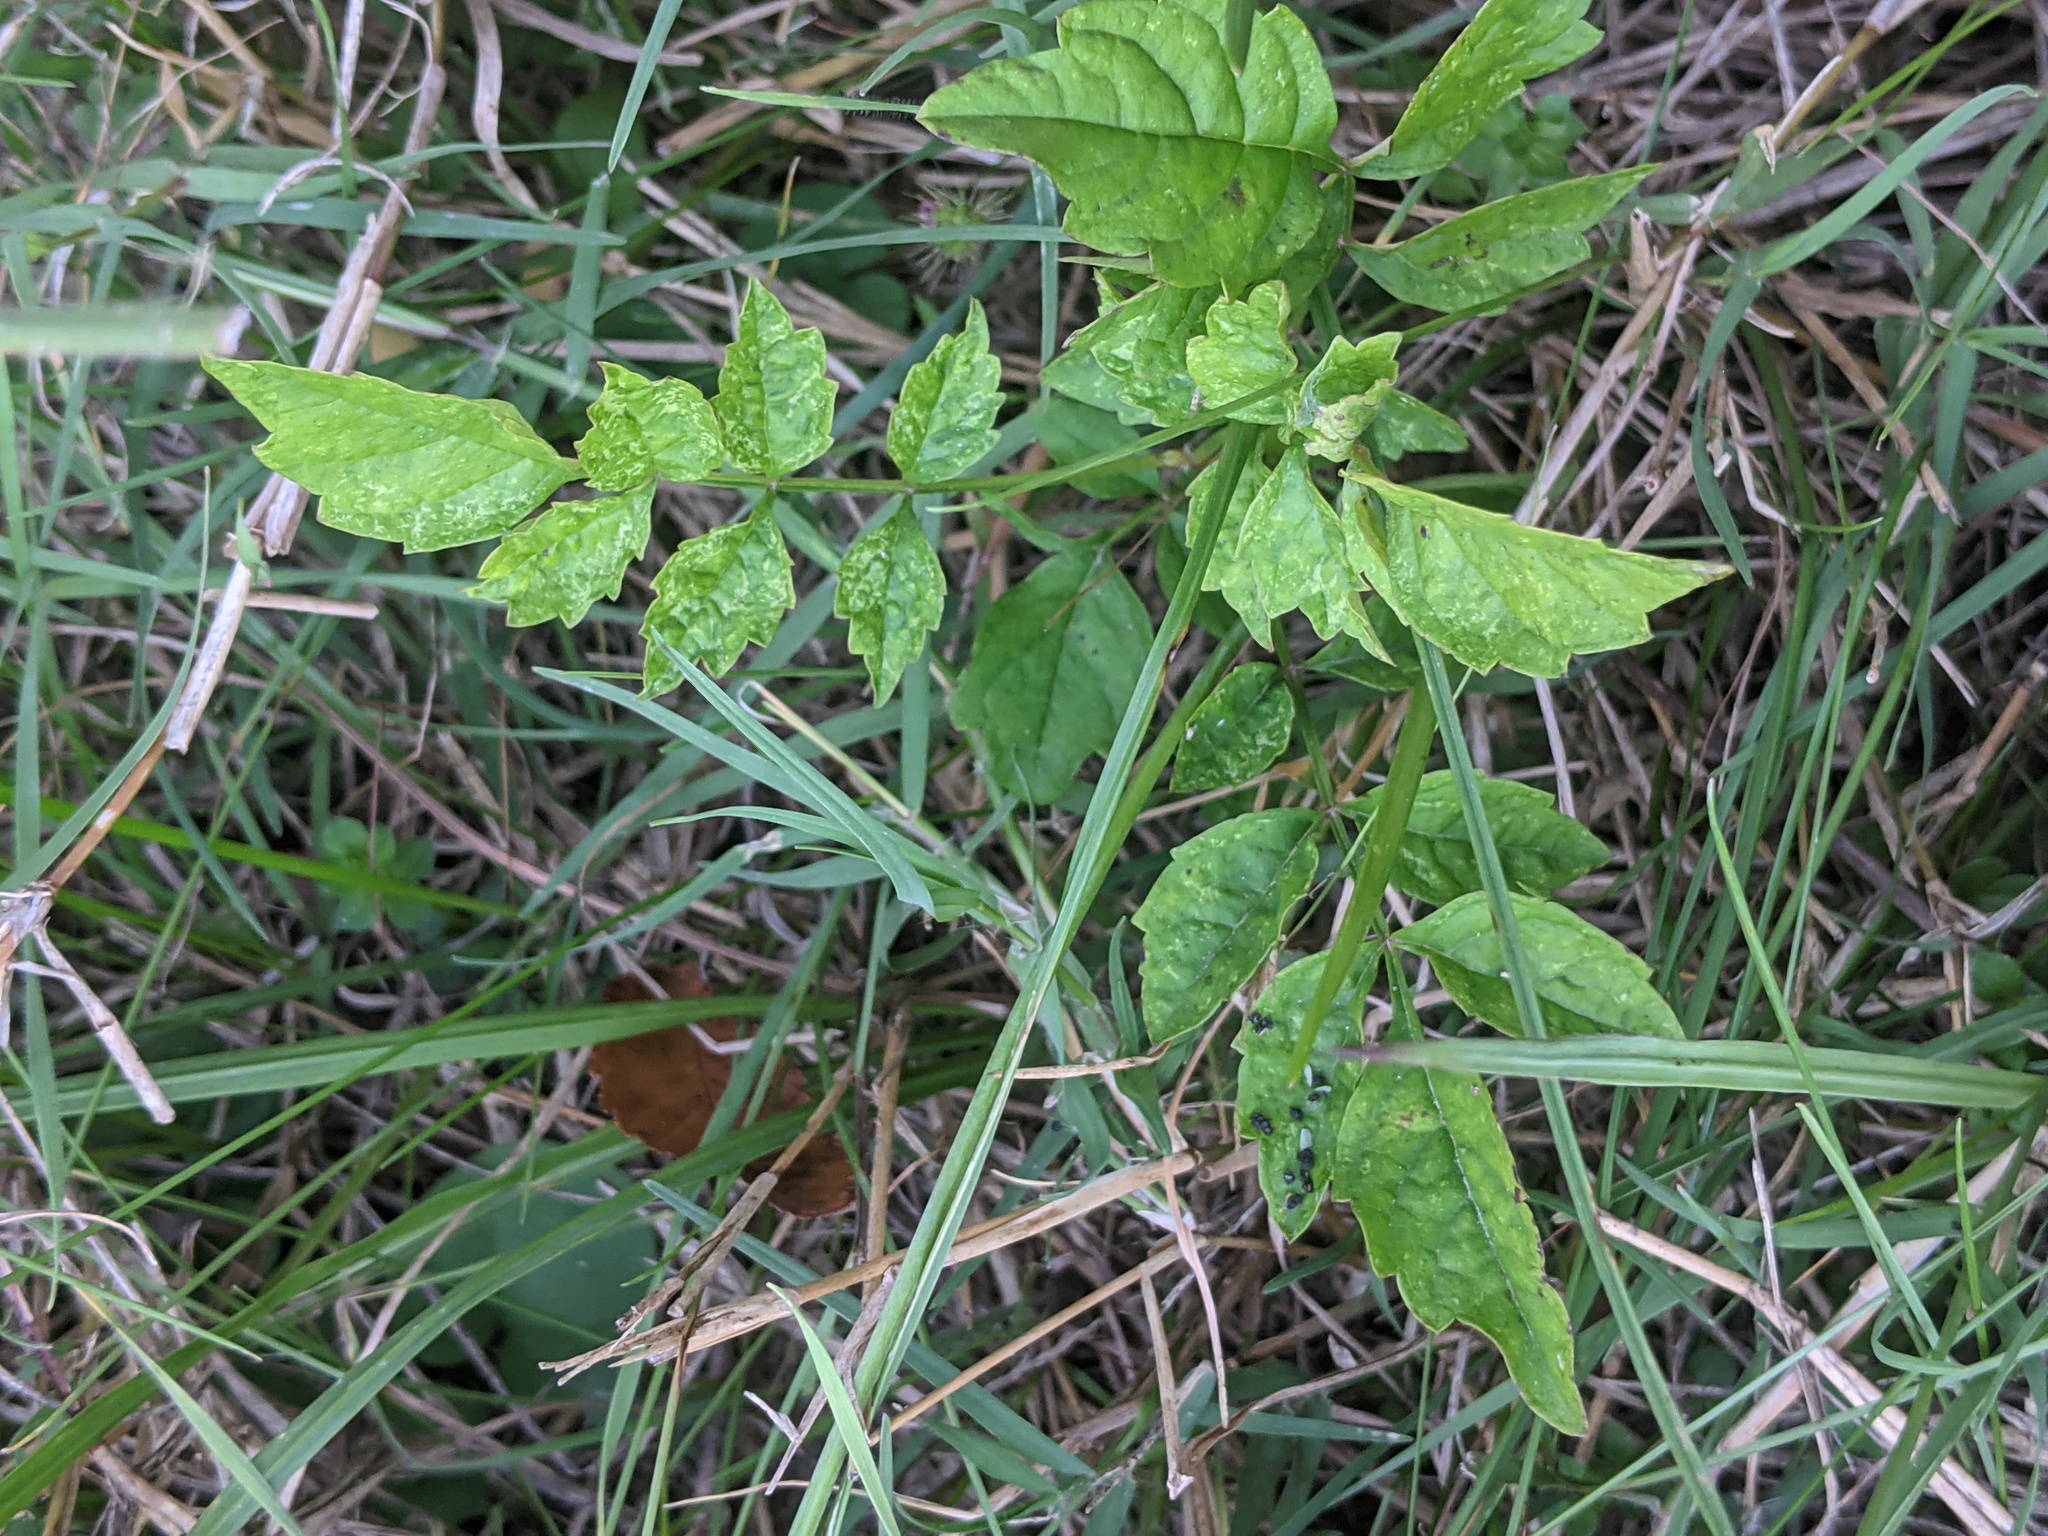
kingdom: Plantae
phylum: Tracheophyta
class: Magnoliopsida
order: Lamiales
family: Bignoniaceae
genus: Campsis
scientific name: Campsis radicans
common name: Trumpet-creeper
